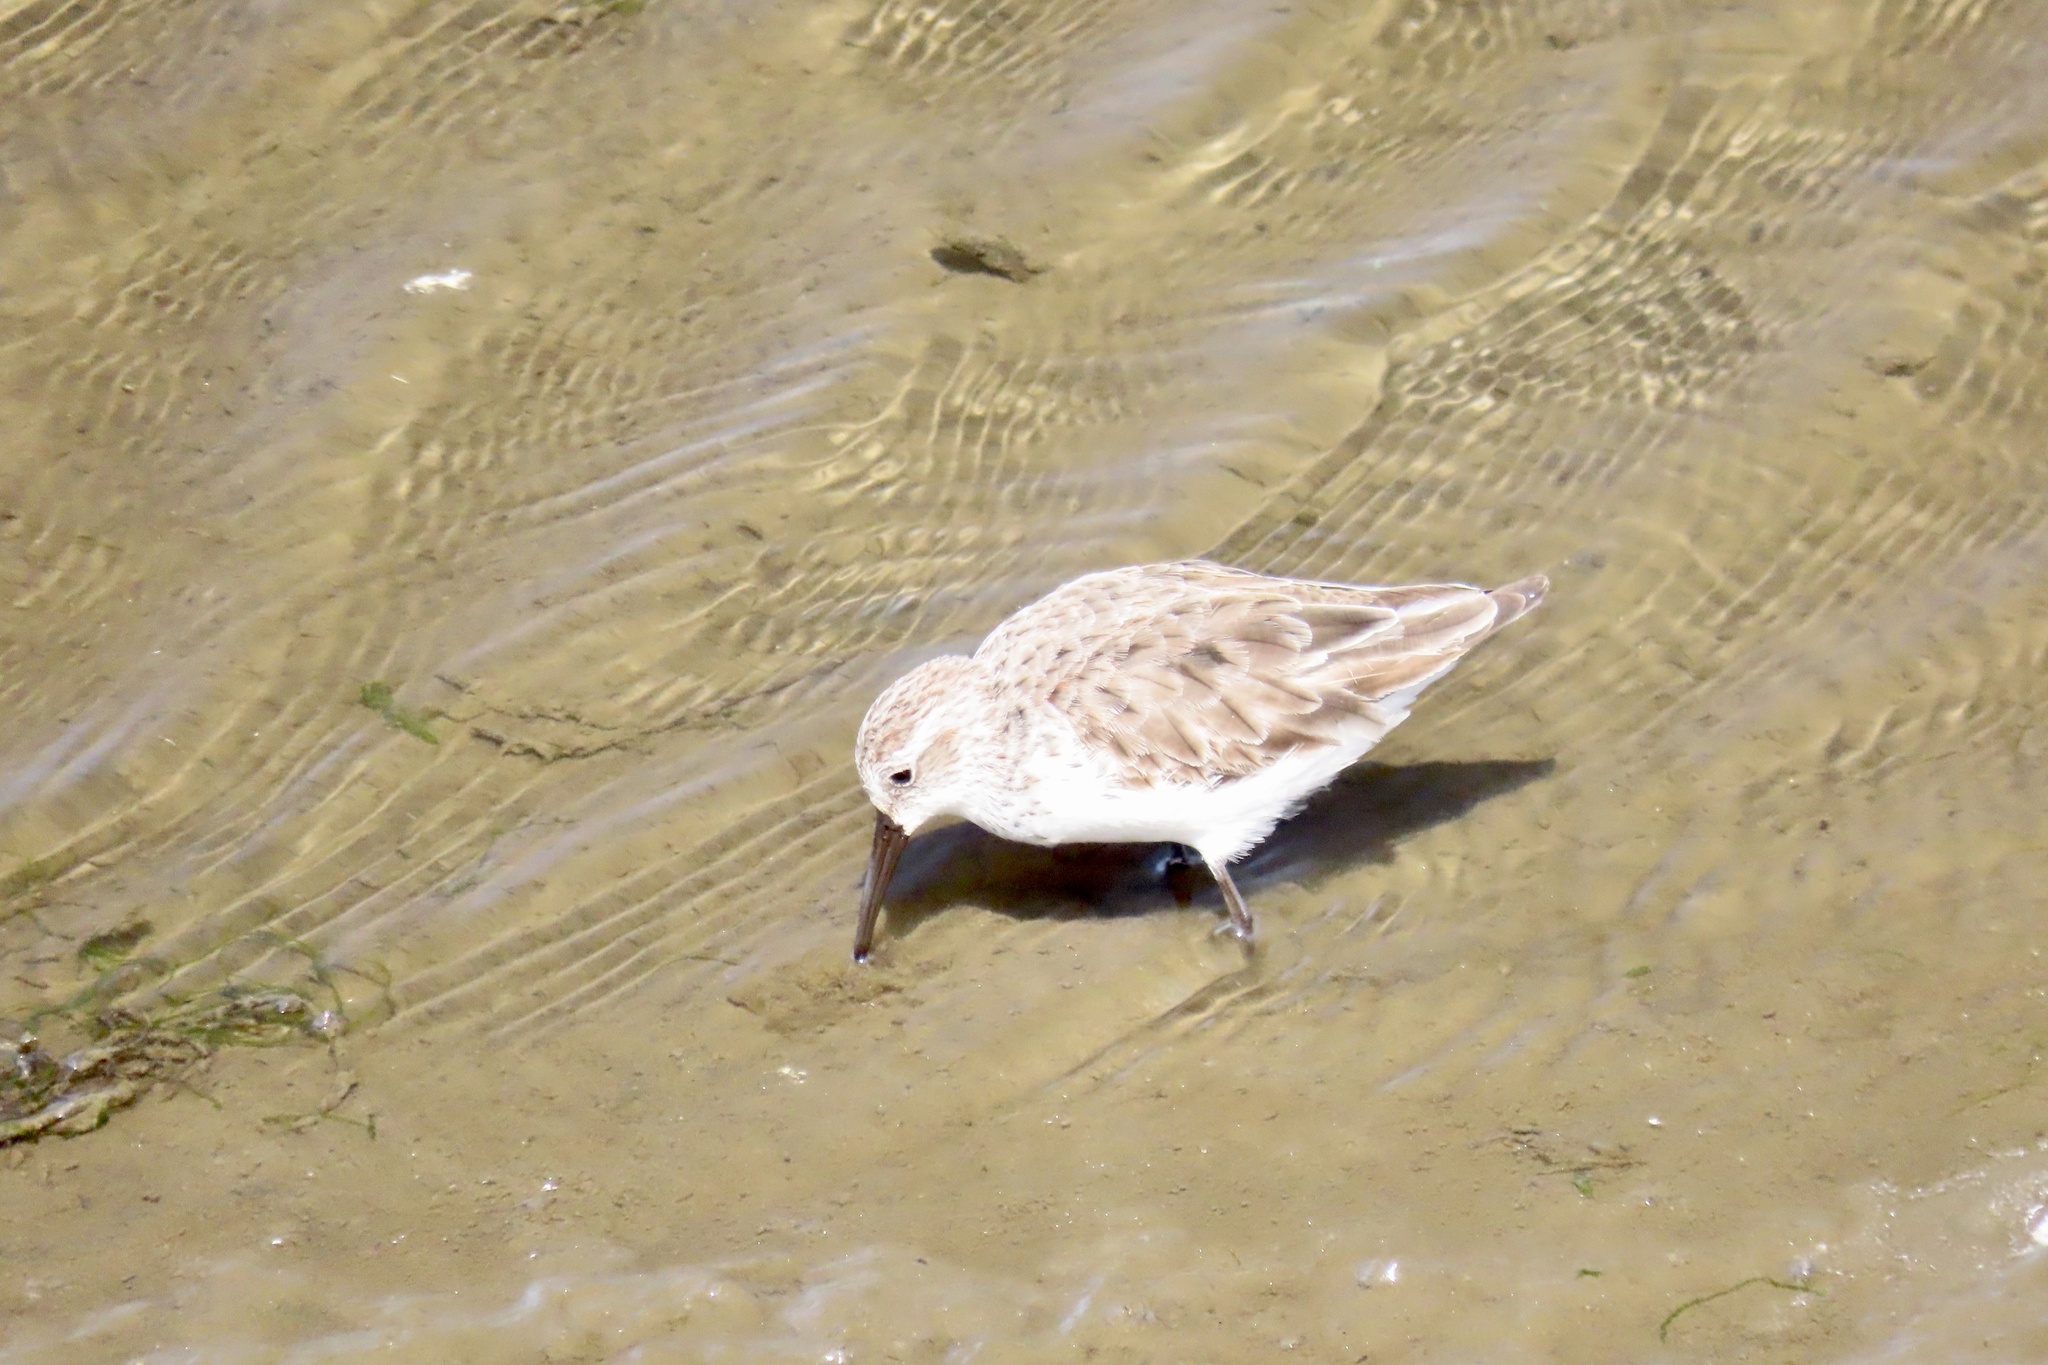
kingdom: Animalia
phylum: Chordata
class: Aves
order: Charadriiformes
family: Scolopacidae
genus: Calidris
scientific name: Calidris mauri
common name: Western sandpiper
